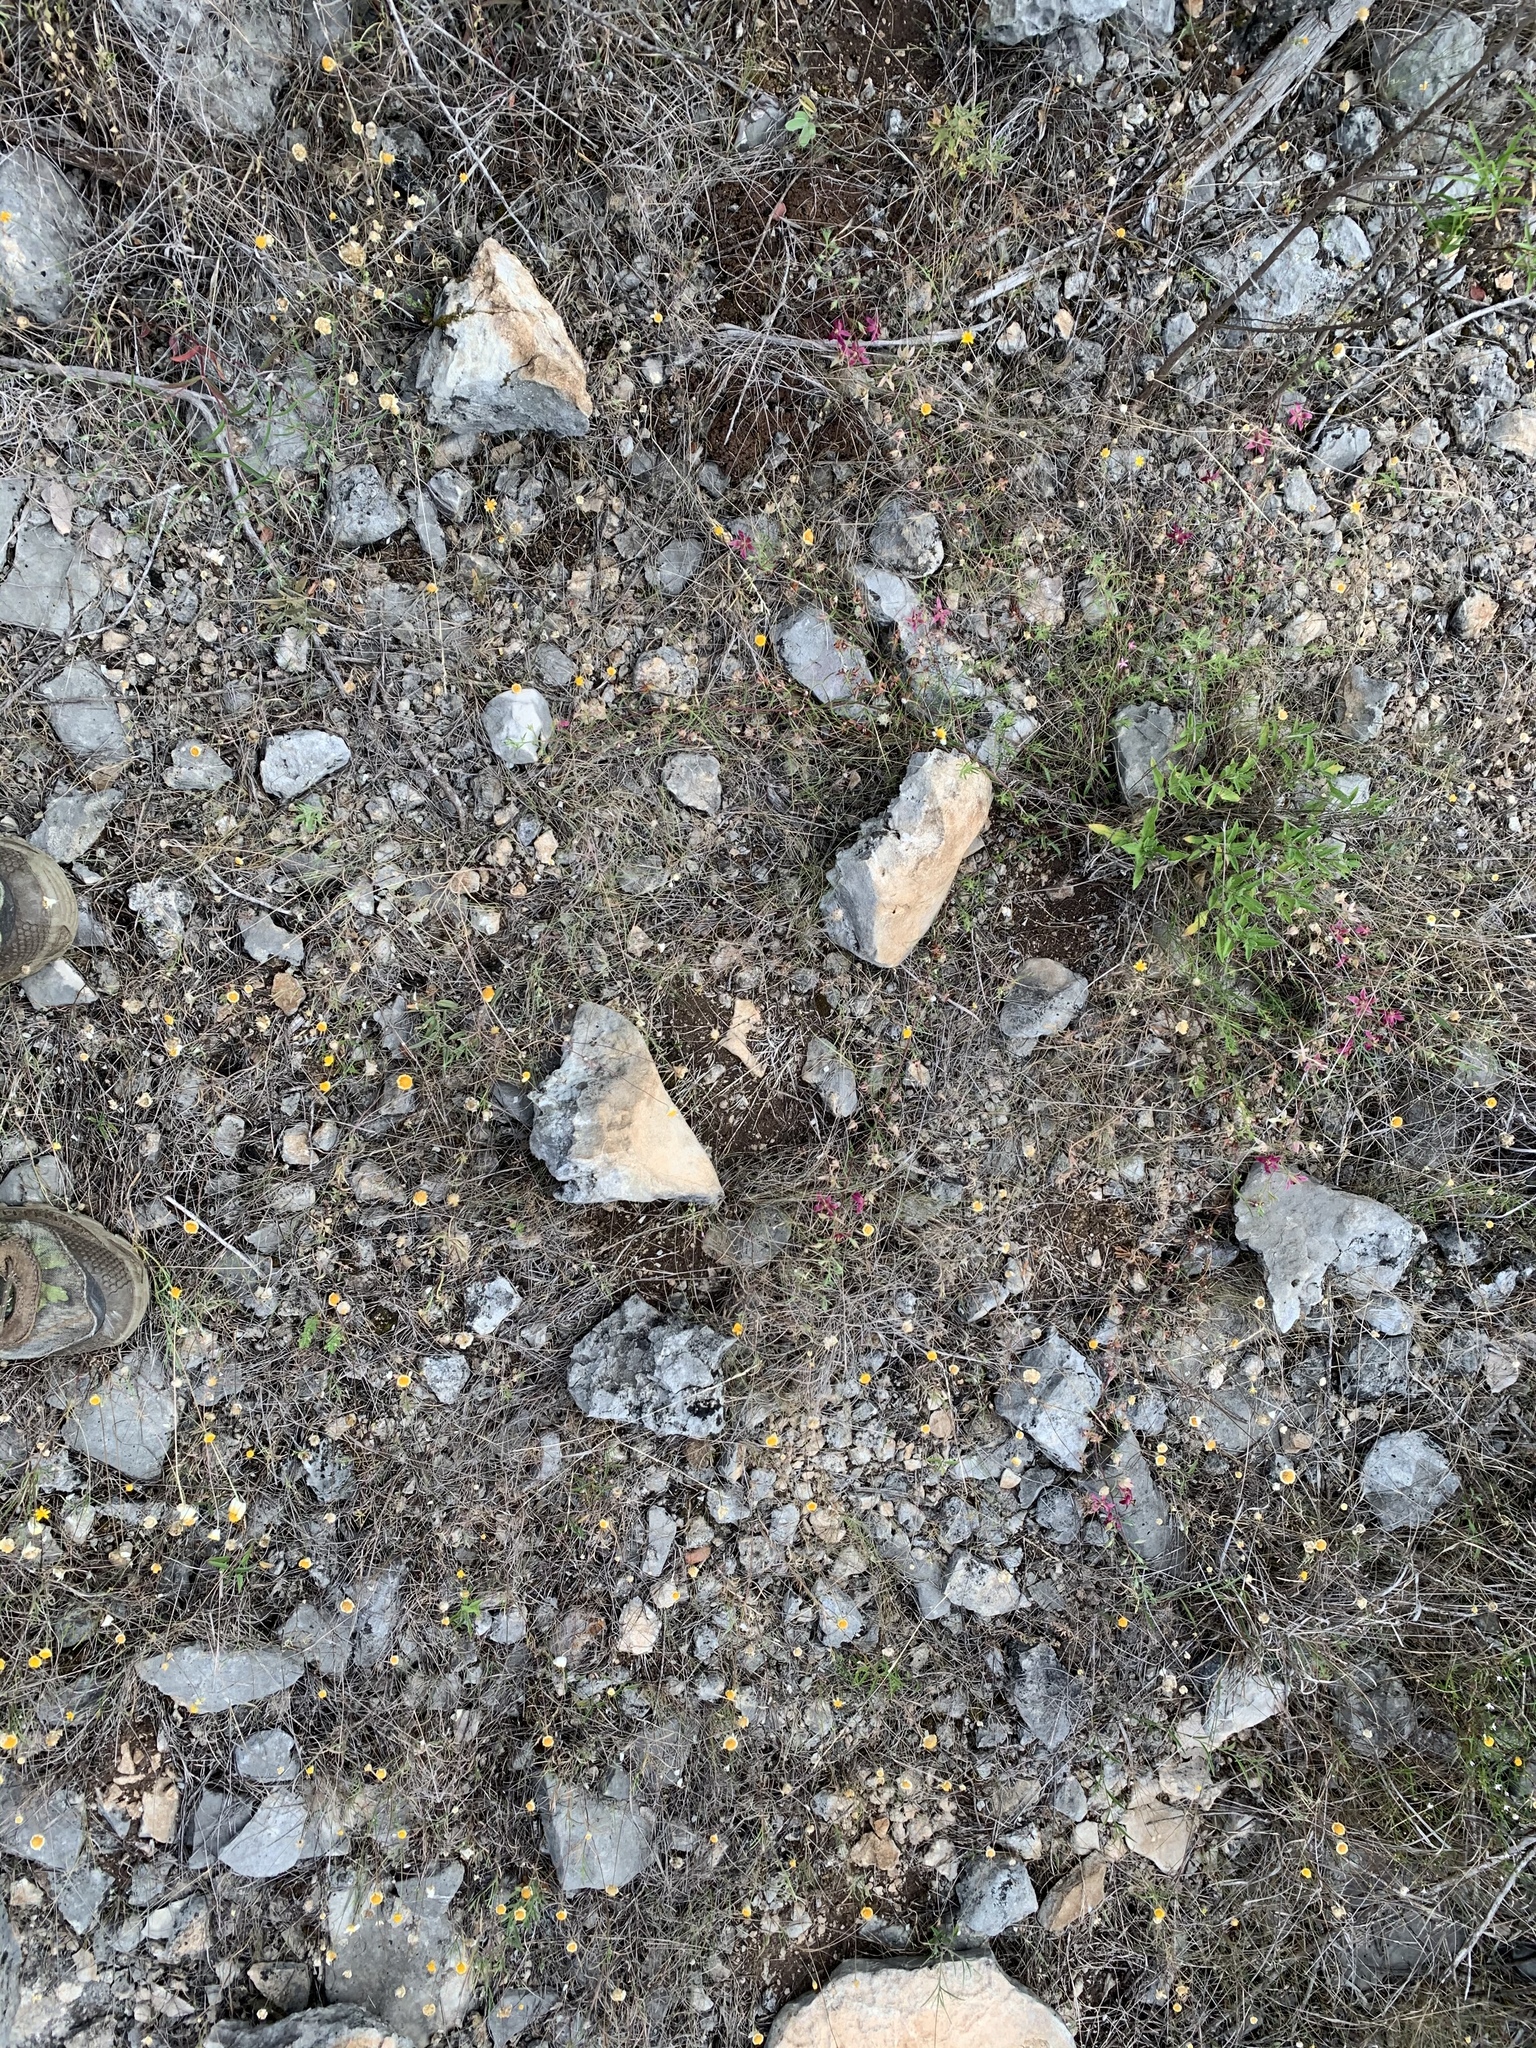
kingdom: Plantae
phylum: Tracheophyta
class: Magnoliopsida
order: Zygophyllales
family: Krameriaceae
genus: Krameria
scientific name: Krameria lanceolata
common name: Ratany
